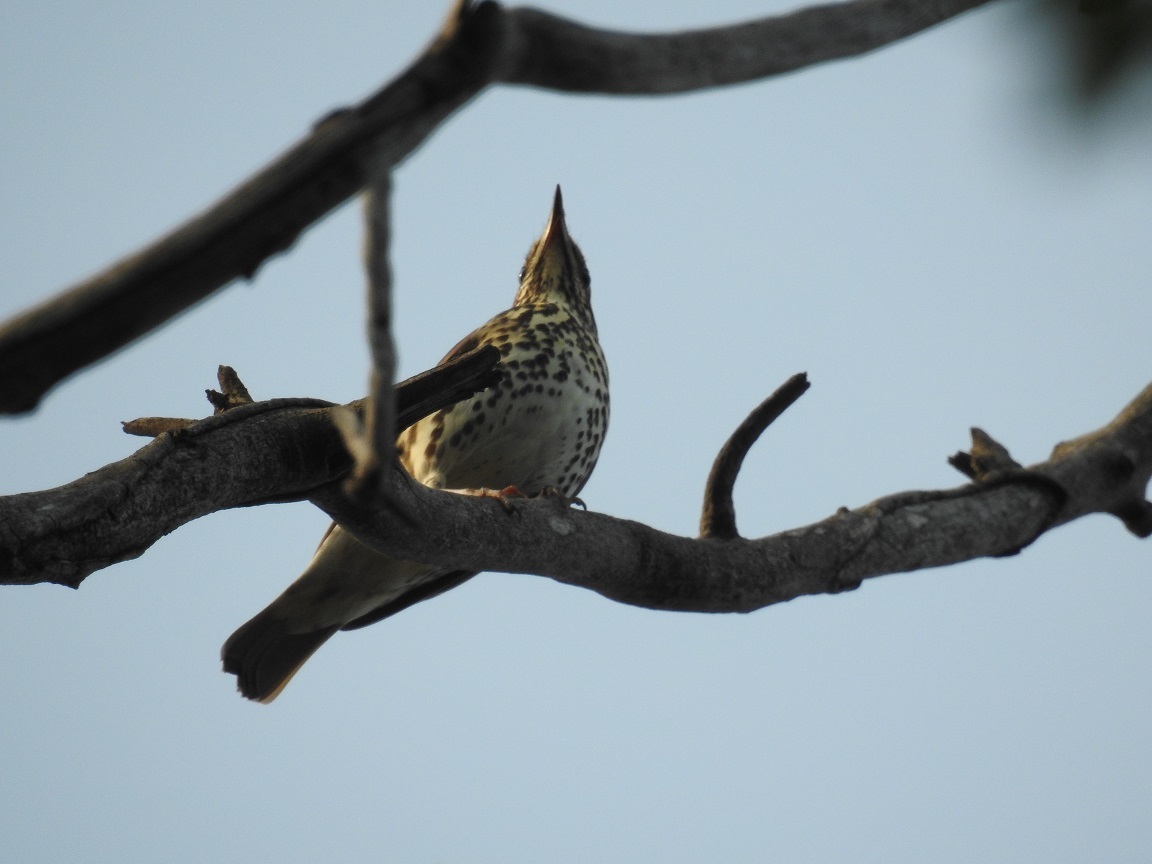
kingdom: Animalia
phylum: Chordata
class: Aves
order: Passeriformes
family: Turdidae
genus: Turdus
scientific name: Turdus philomelos
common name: Song thrush
